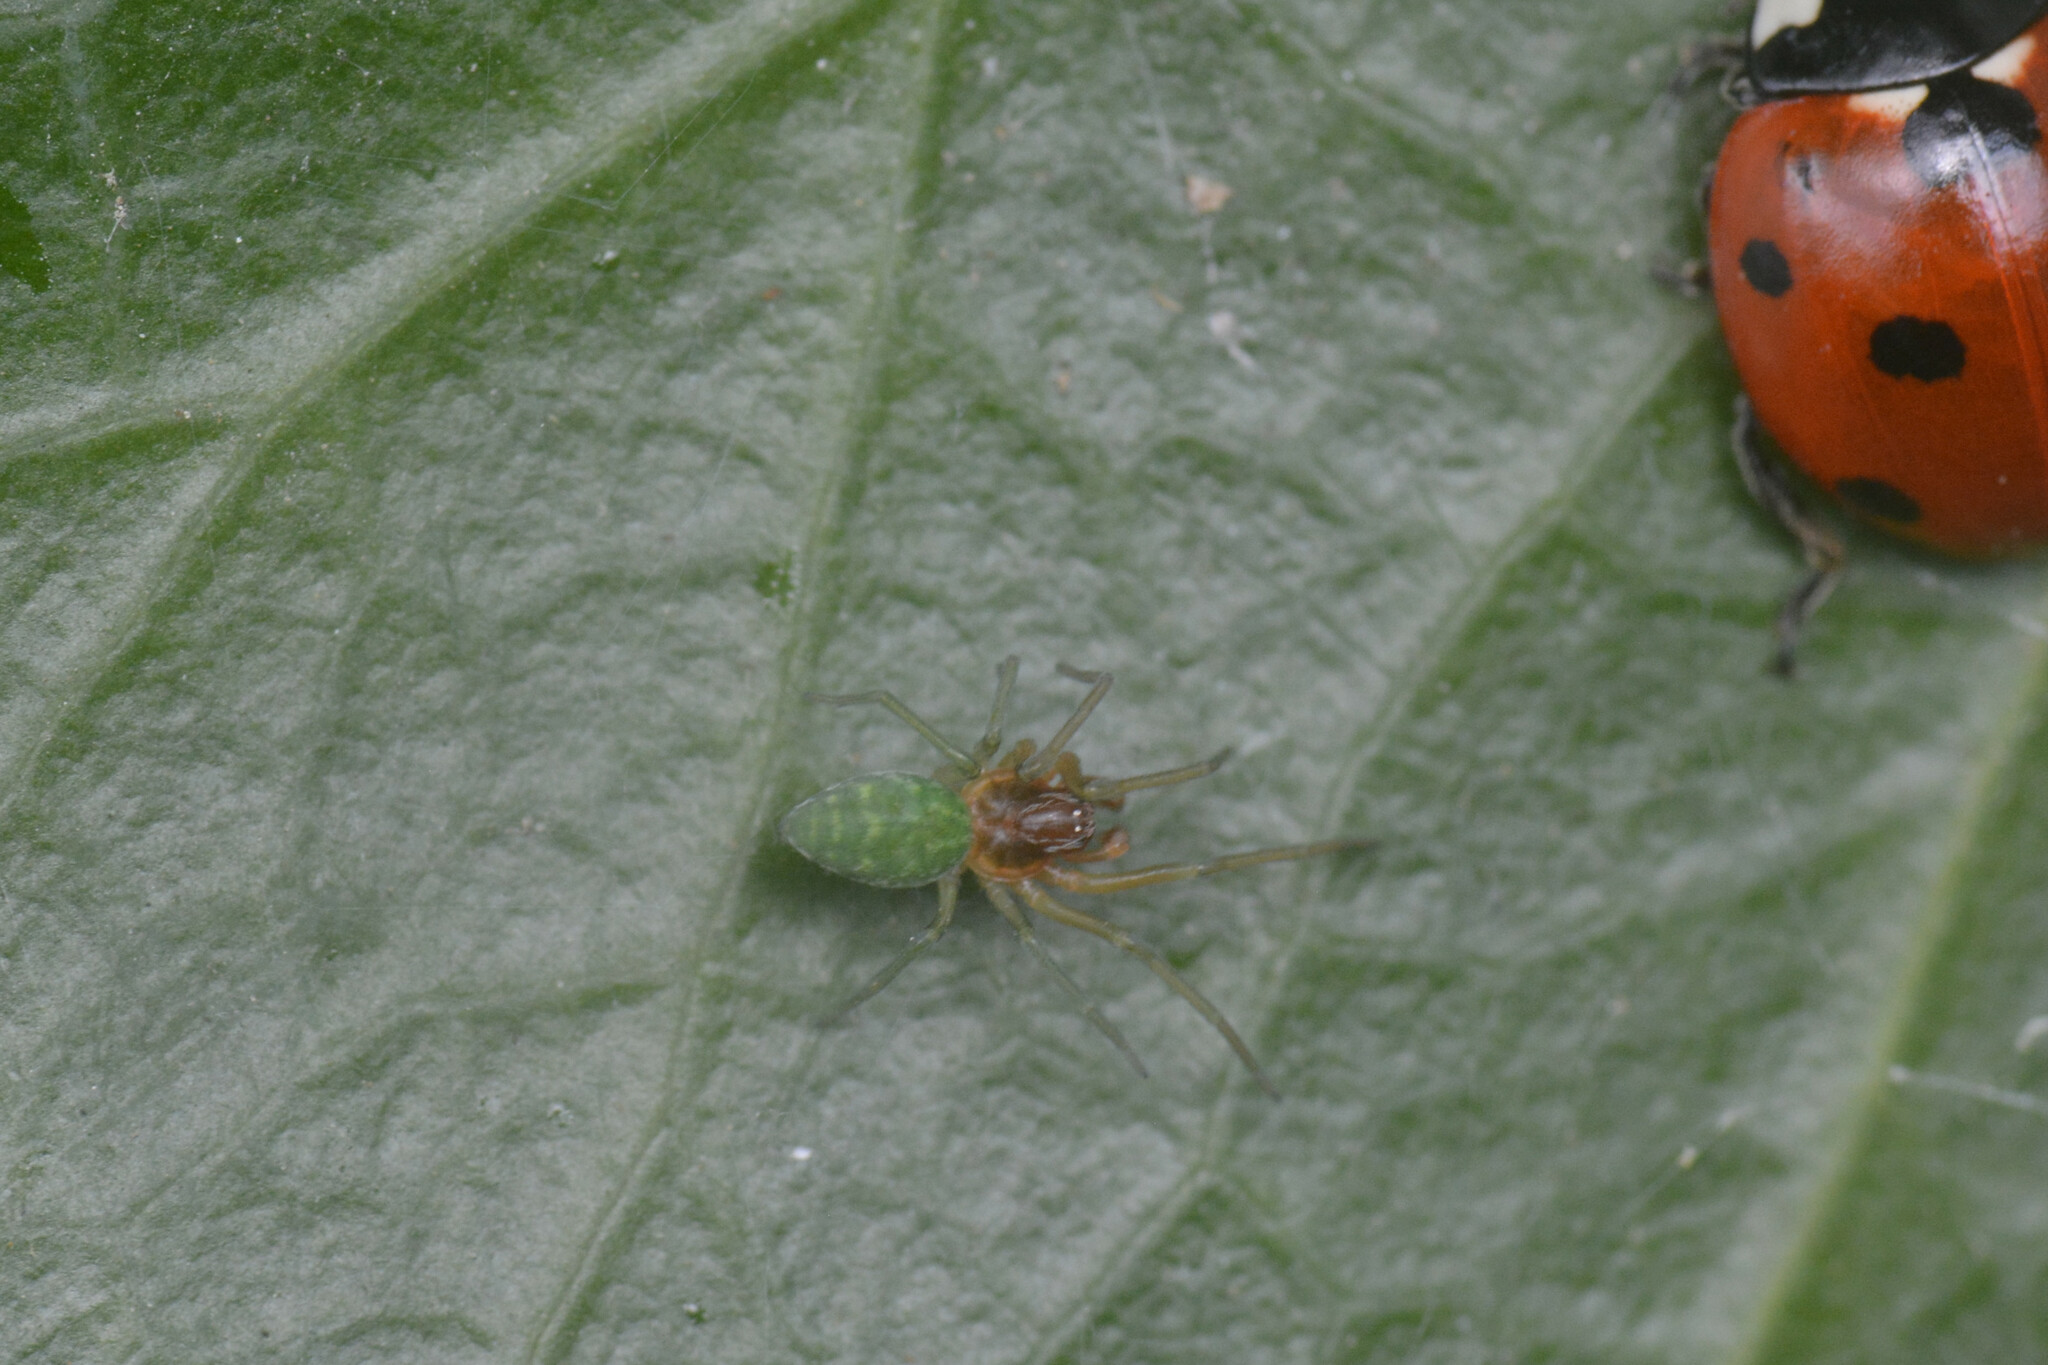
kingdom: Animalia
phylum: Arthropoda
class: Arachnida
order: Araneae
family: Dictynidae
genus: Nigma
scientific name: Nigma walckenaeri
